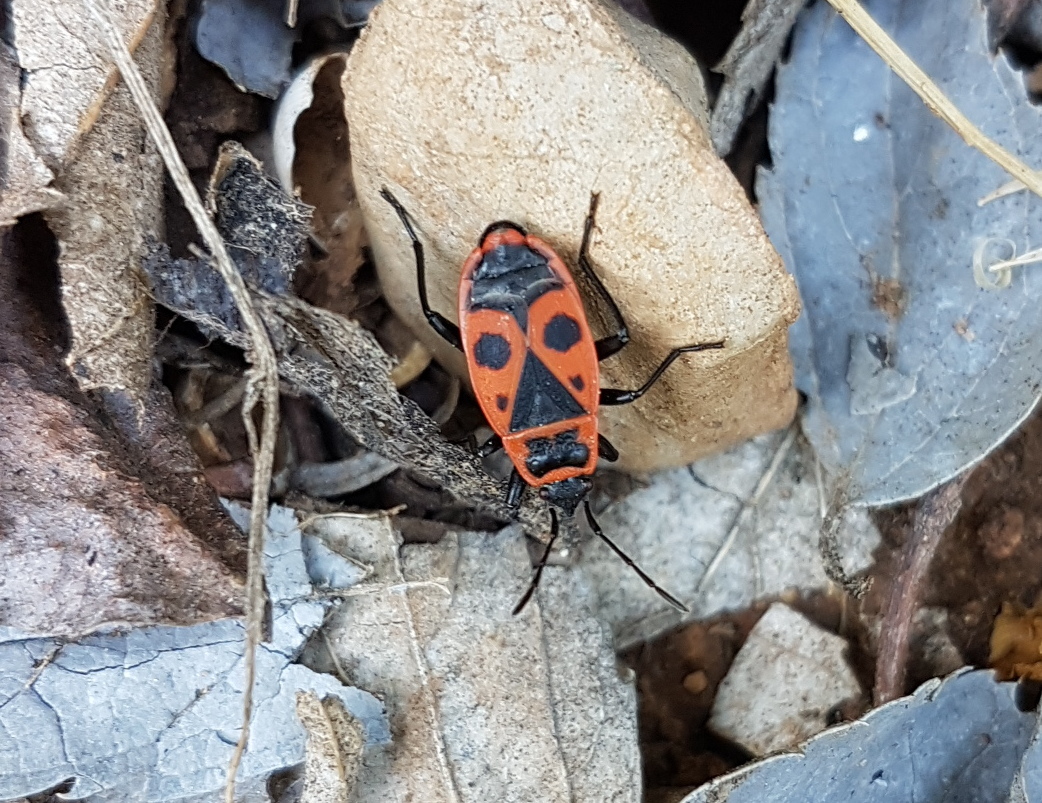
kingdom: Animalia
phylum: Arthropoda
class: Insecta
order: Hemiptera
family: Pyrrhocoridae
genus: Pyrrhocoris
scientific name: Pyrrhocoris apterus
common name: Firebug
